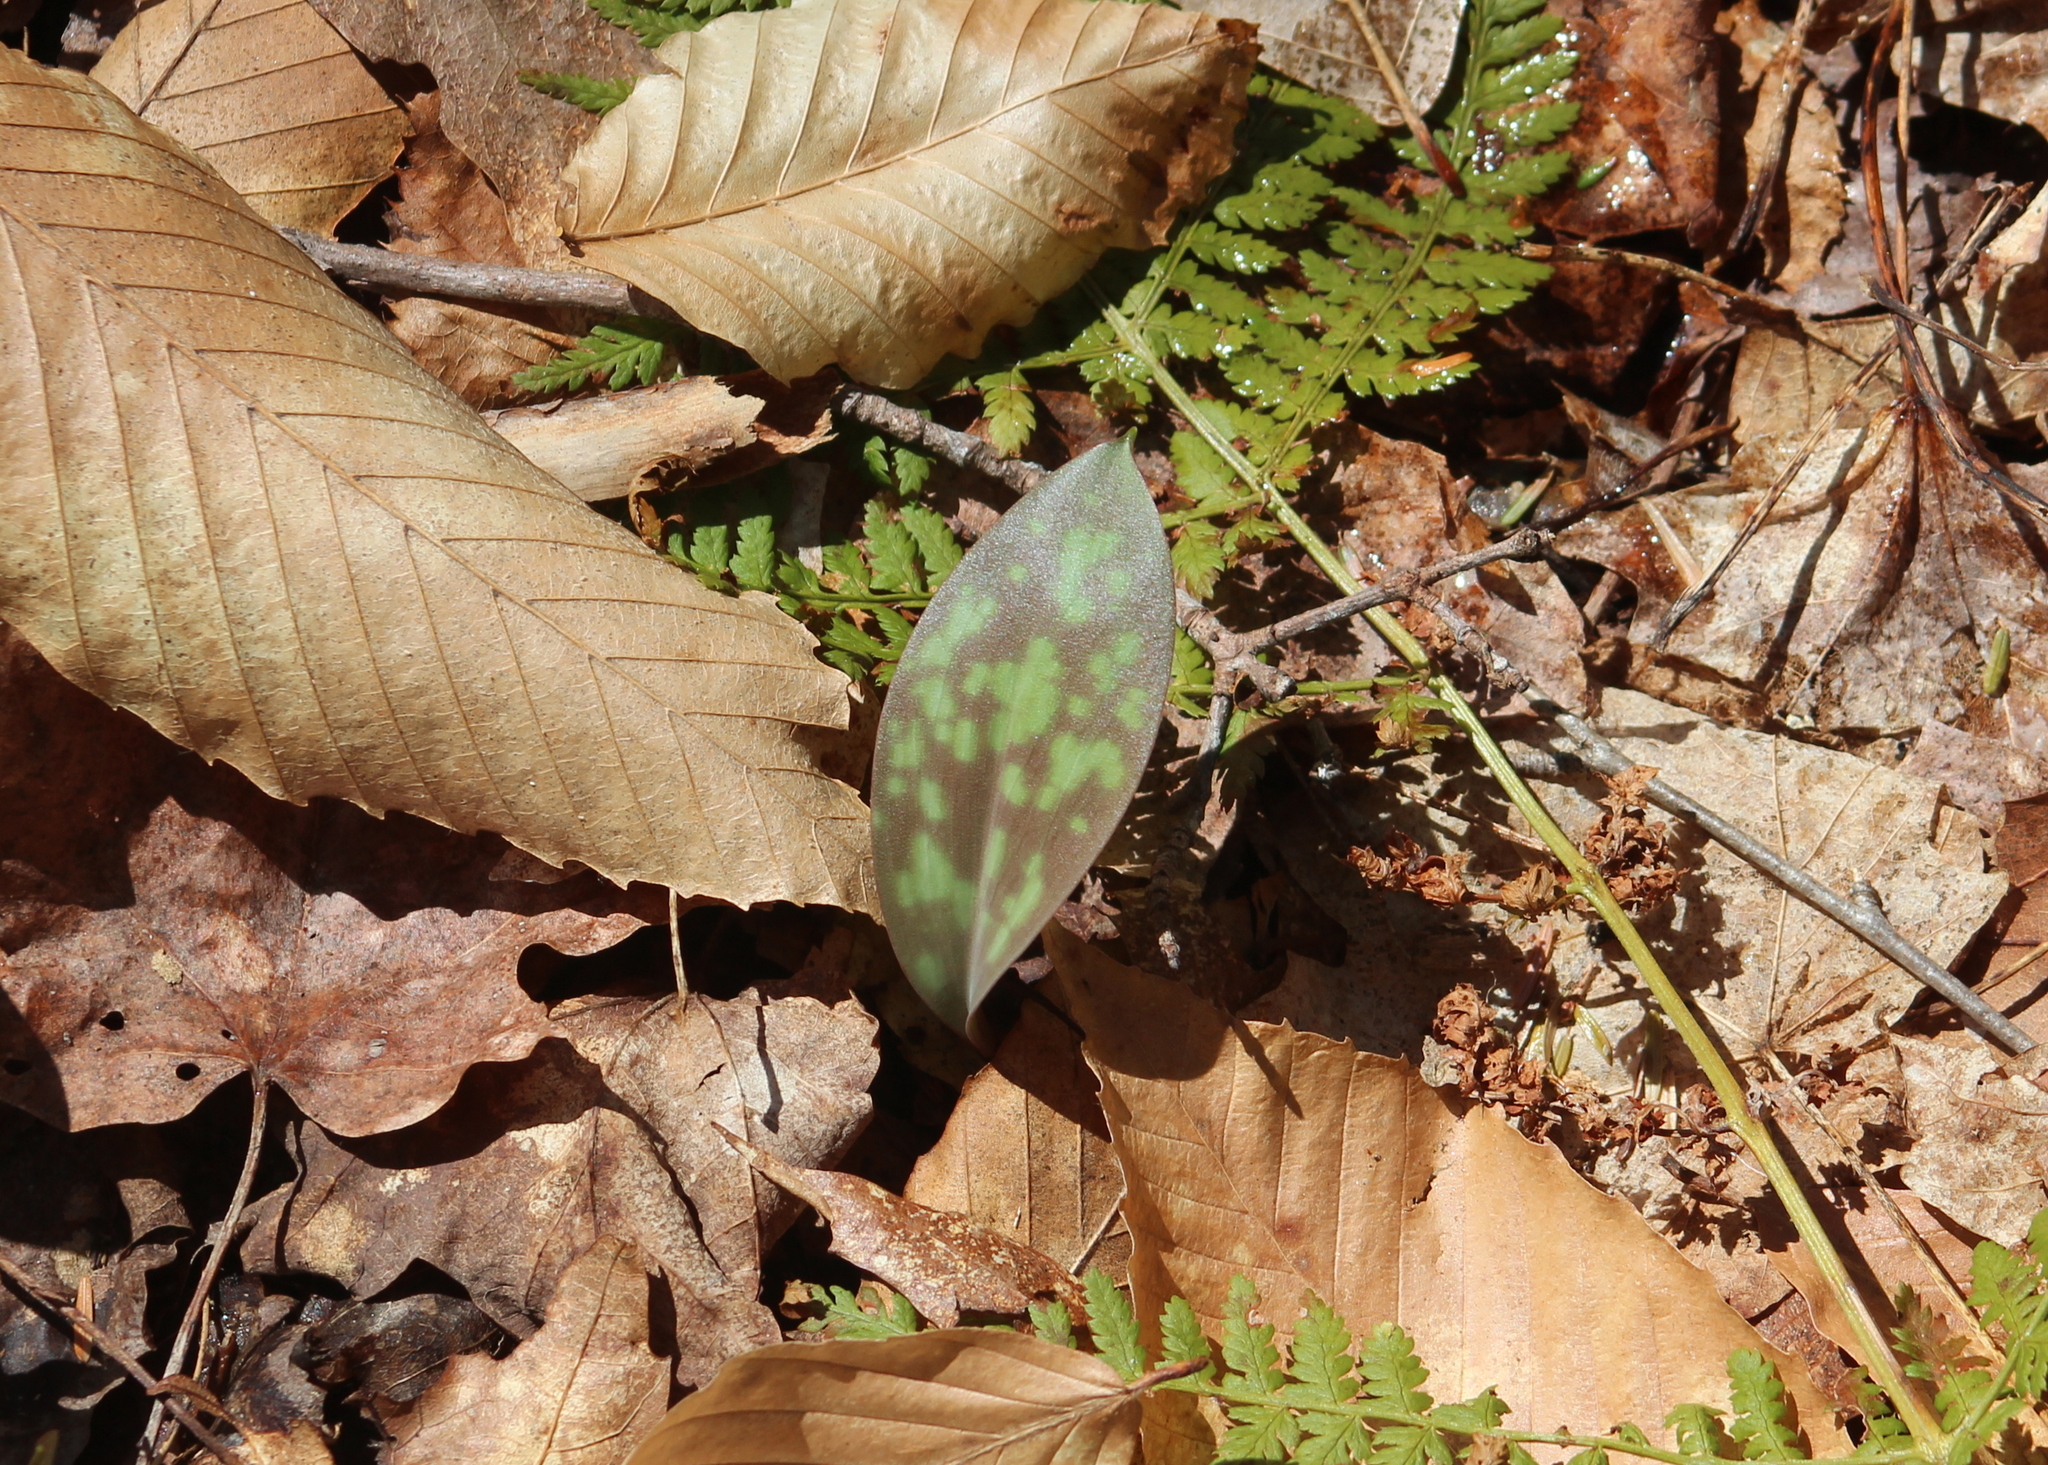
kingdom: Plantae
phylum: Tracheophyta
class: Liliopsida
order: Liliales
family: Liliaceae
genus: Erythronium
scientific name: Erythronium americanum
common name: Yellow adder's-tongue
